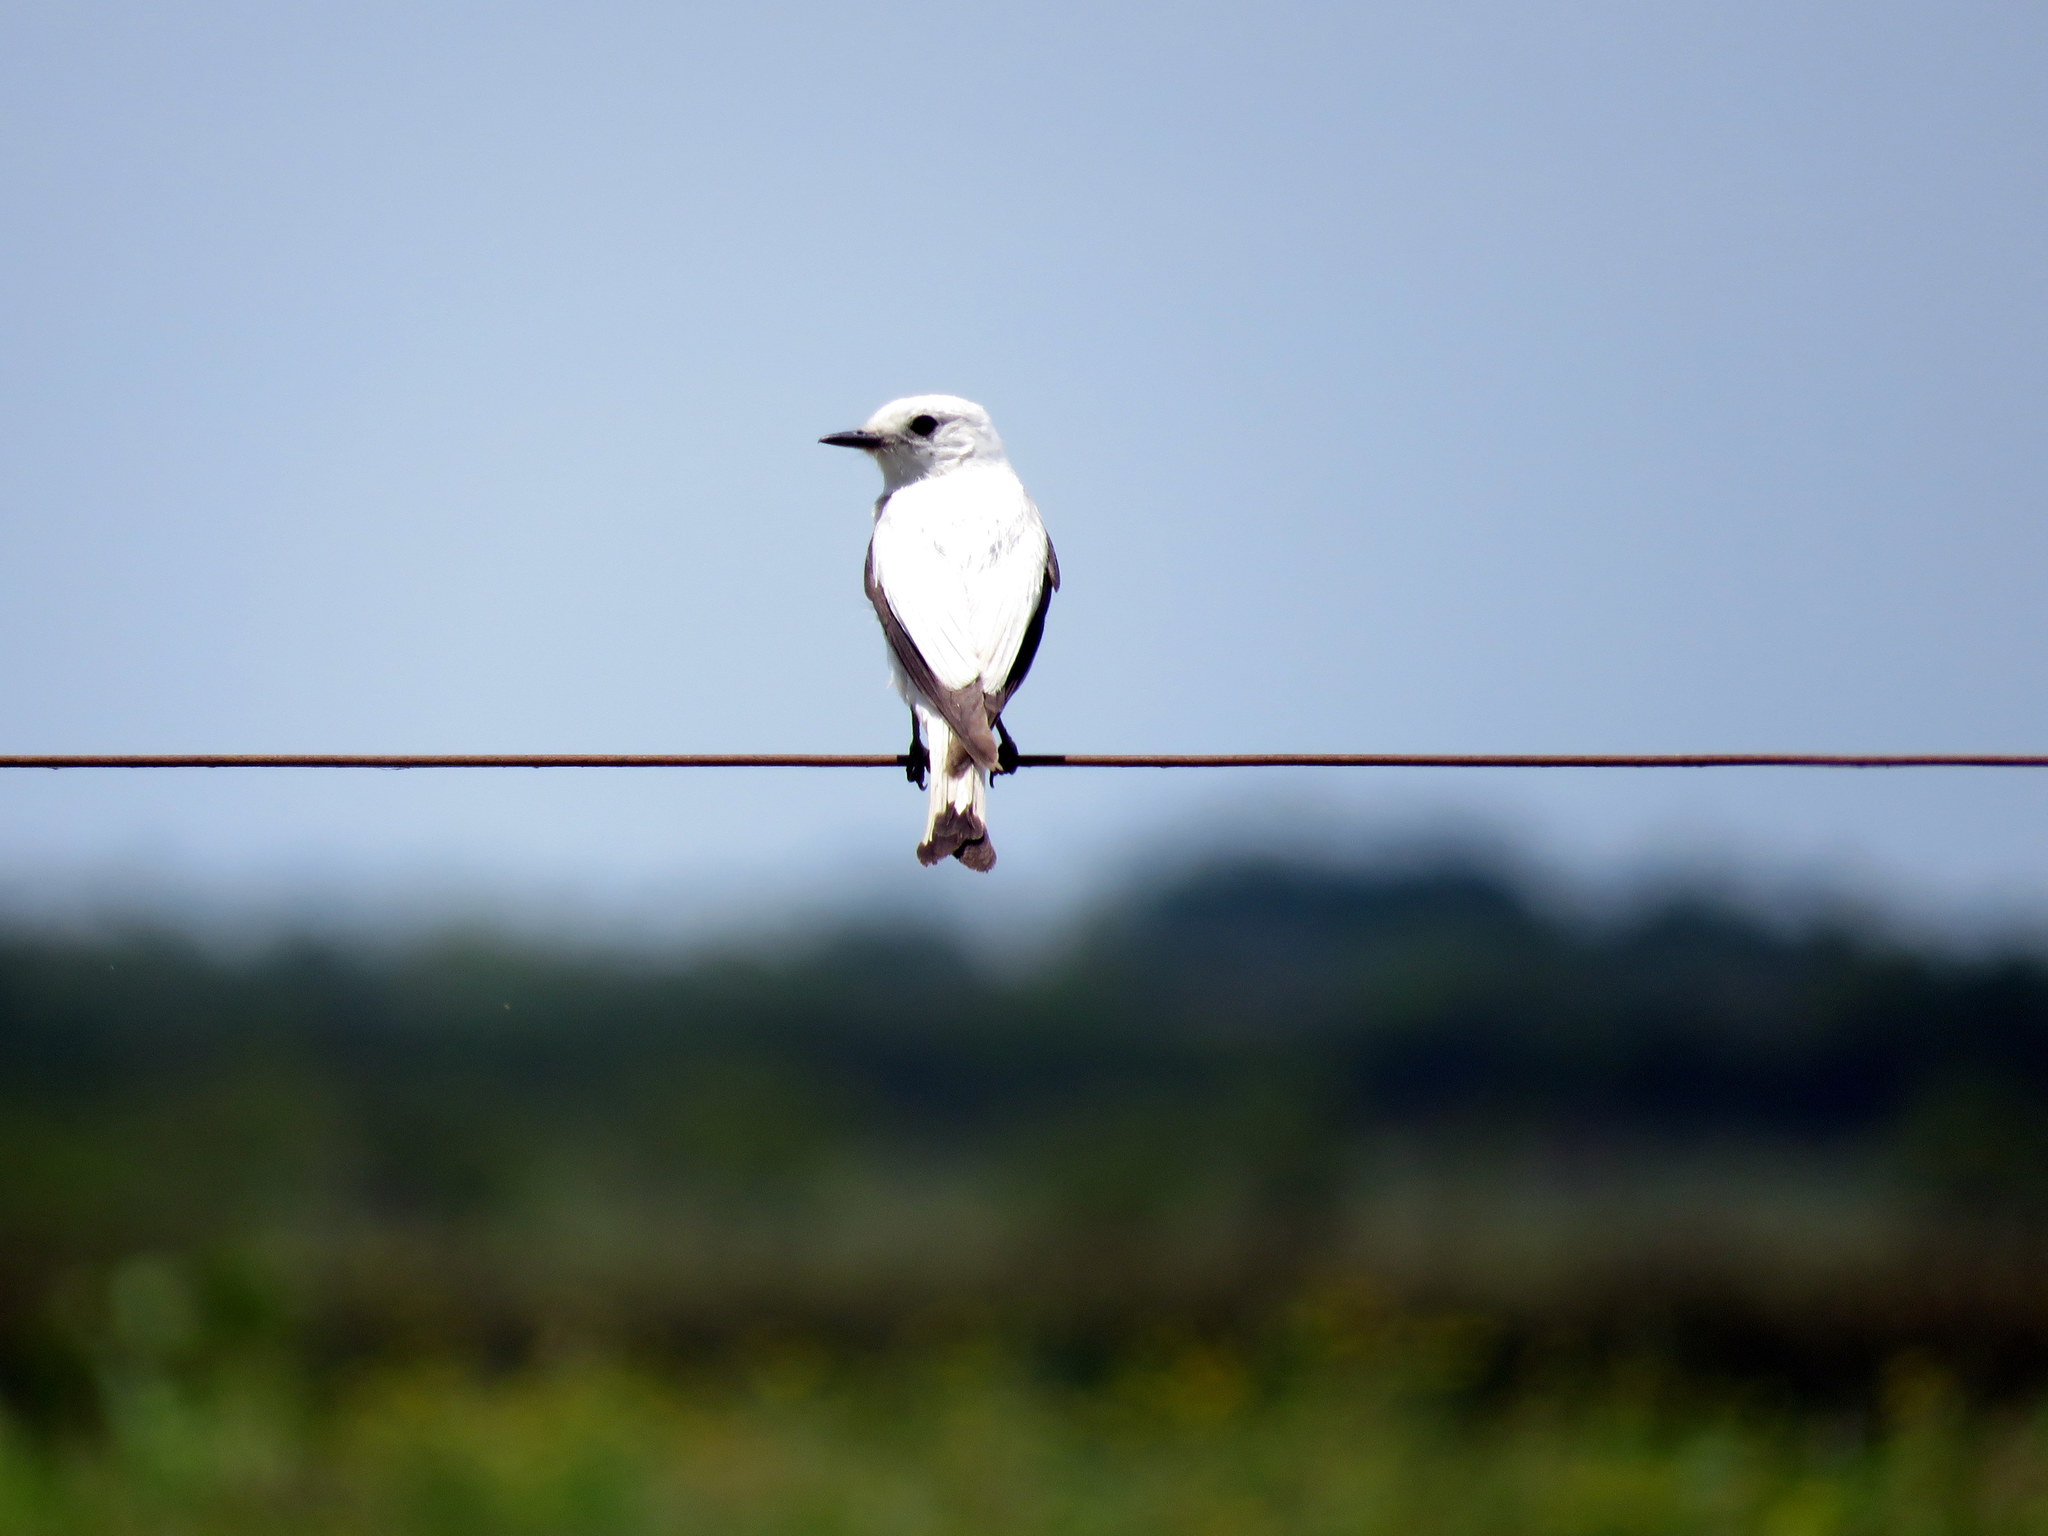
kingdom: Animalia
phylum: Chordata
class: Aves
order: Passeriformes
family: Tyrannidae
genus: Xolmis
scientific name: Xolmis irupero
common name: White monjita
